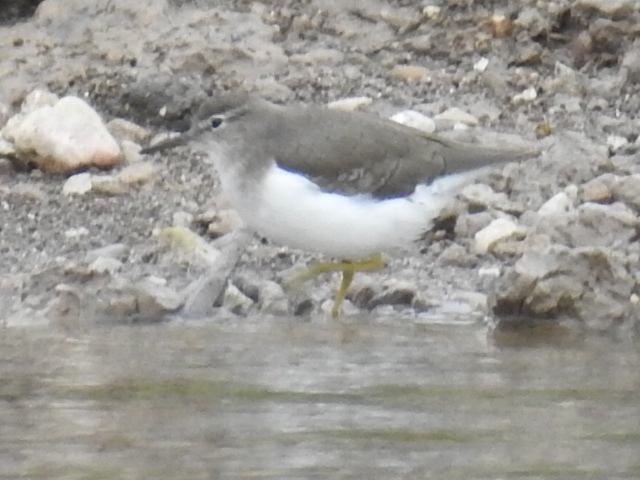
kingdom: Animalia
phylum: Chordata
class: Aves
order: Charadriiformes
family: Scolopacidae
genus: Actitis
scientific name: Actitis macularius
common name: Spotted sandpiper
